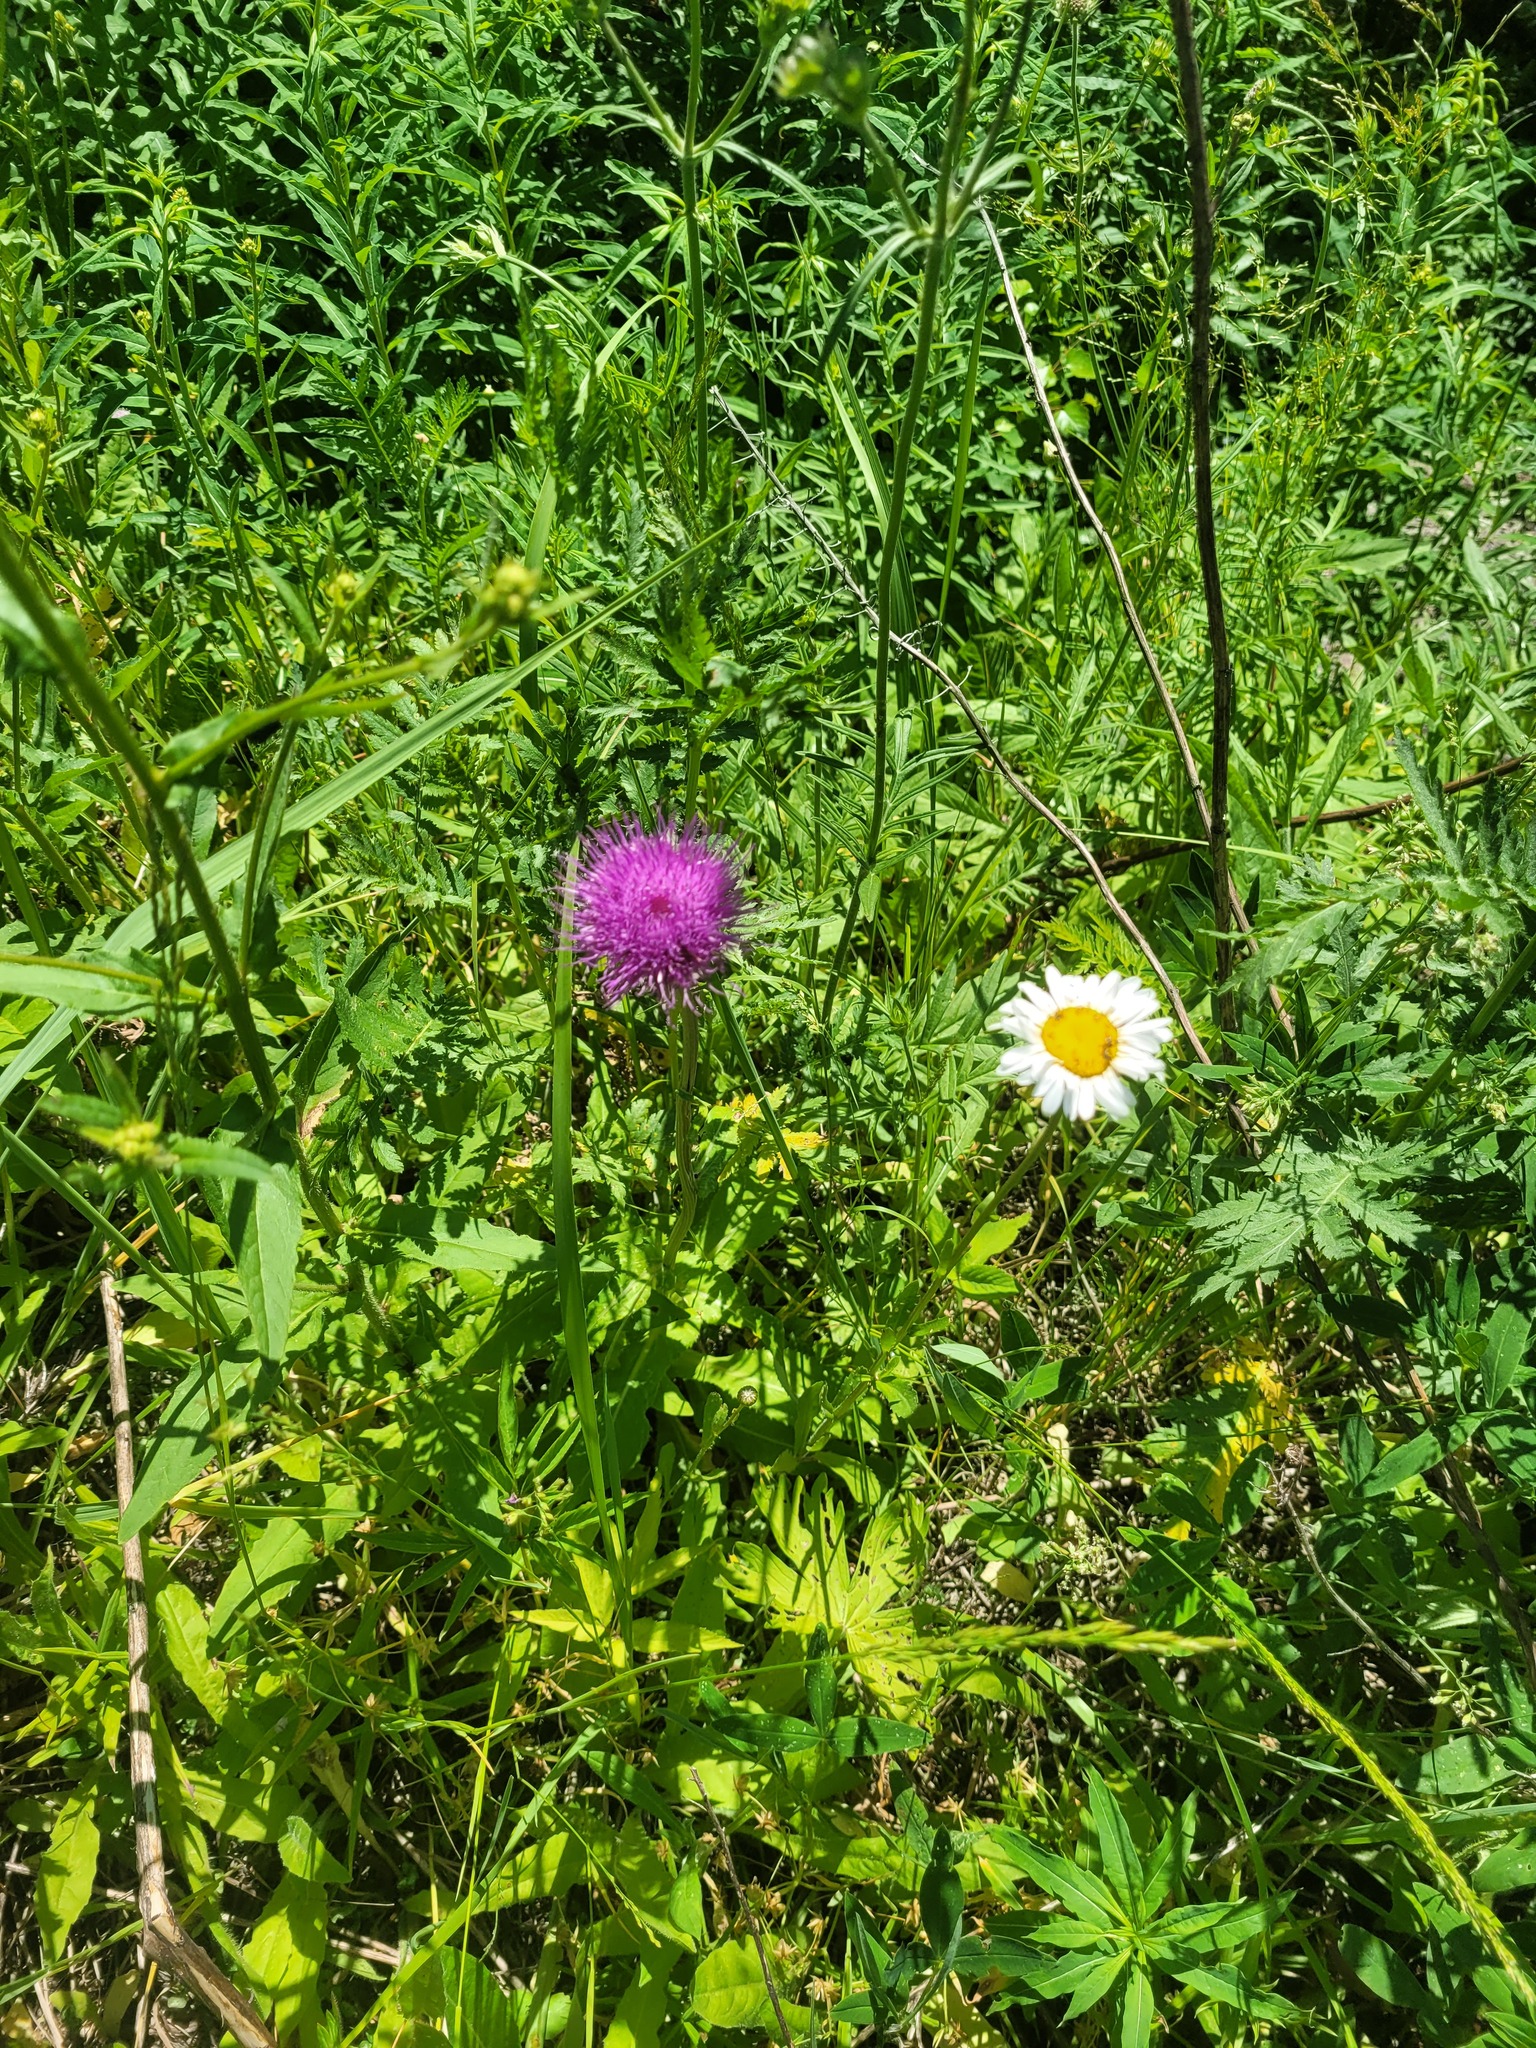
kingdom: Plantae
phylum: Tracheophyta
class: Magnoliopsida
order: Asterales
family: Asteraceae
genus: Cirsium
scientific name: Cirsium heterophyllum
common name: Melancholy thistle
